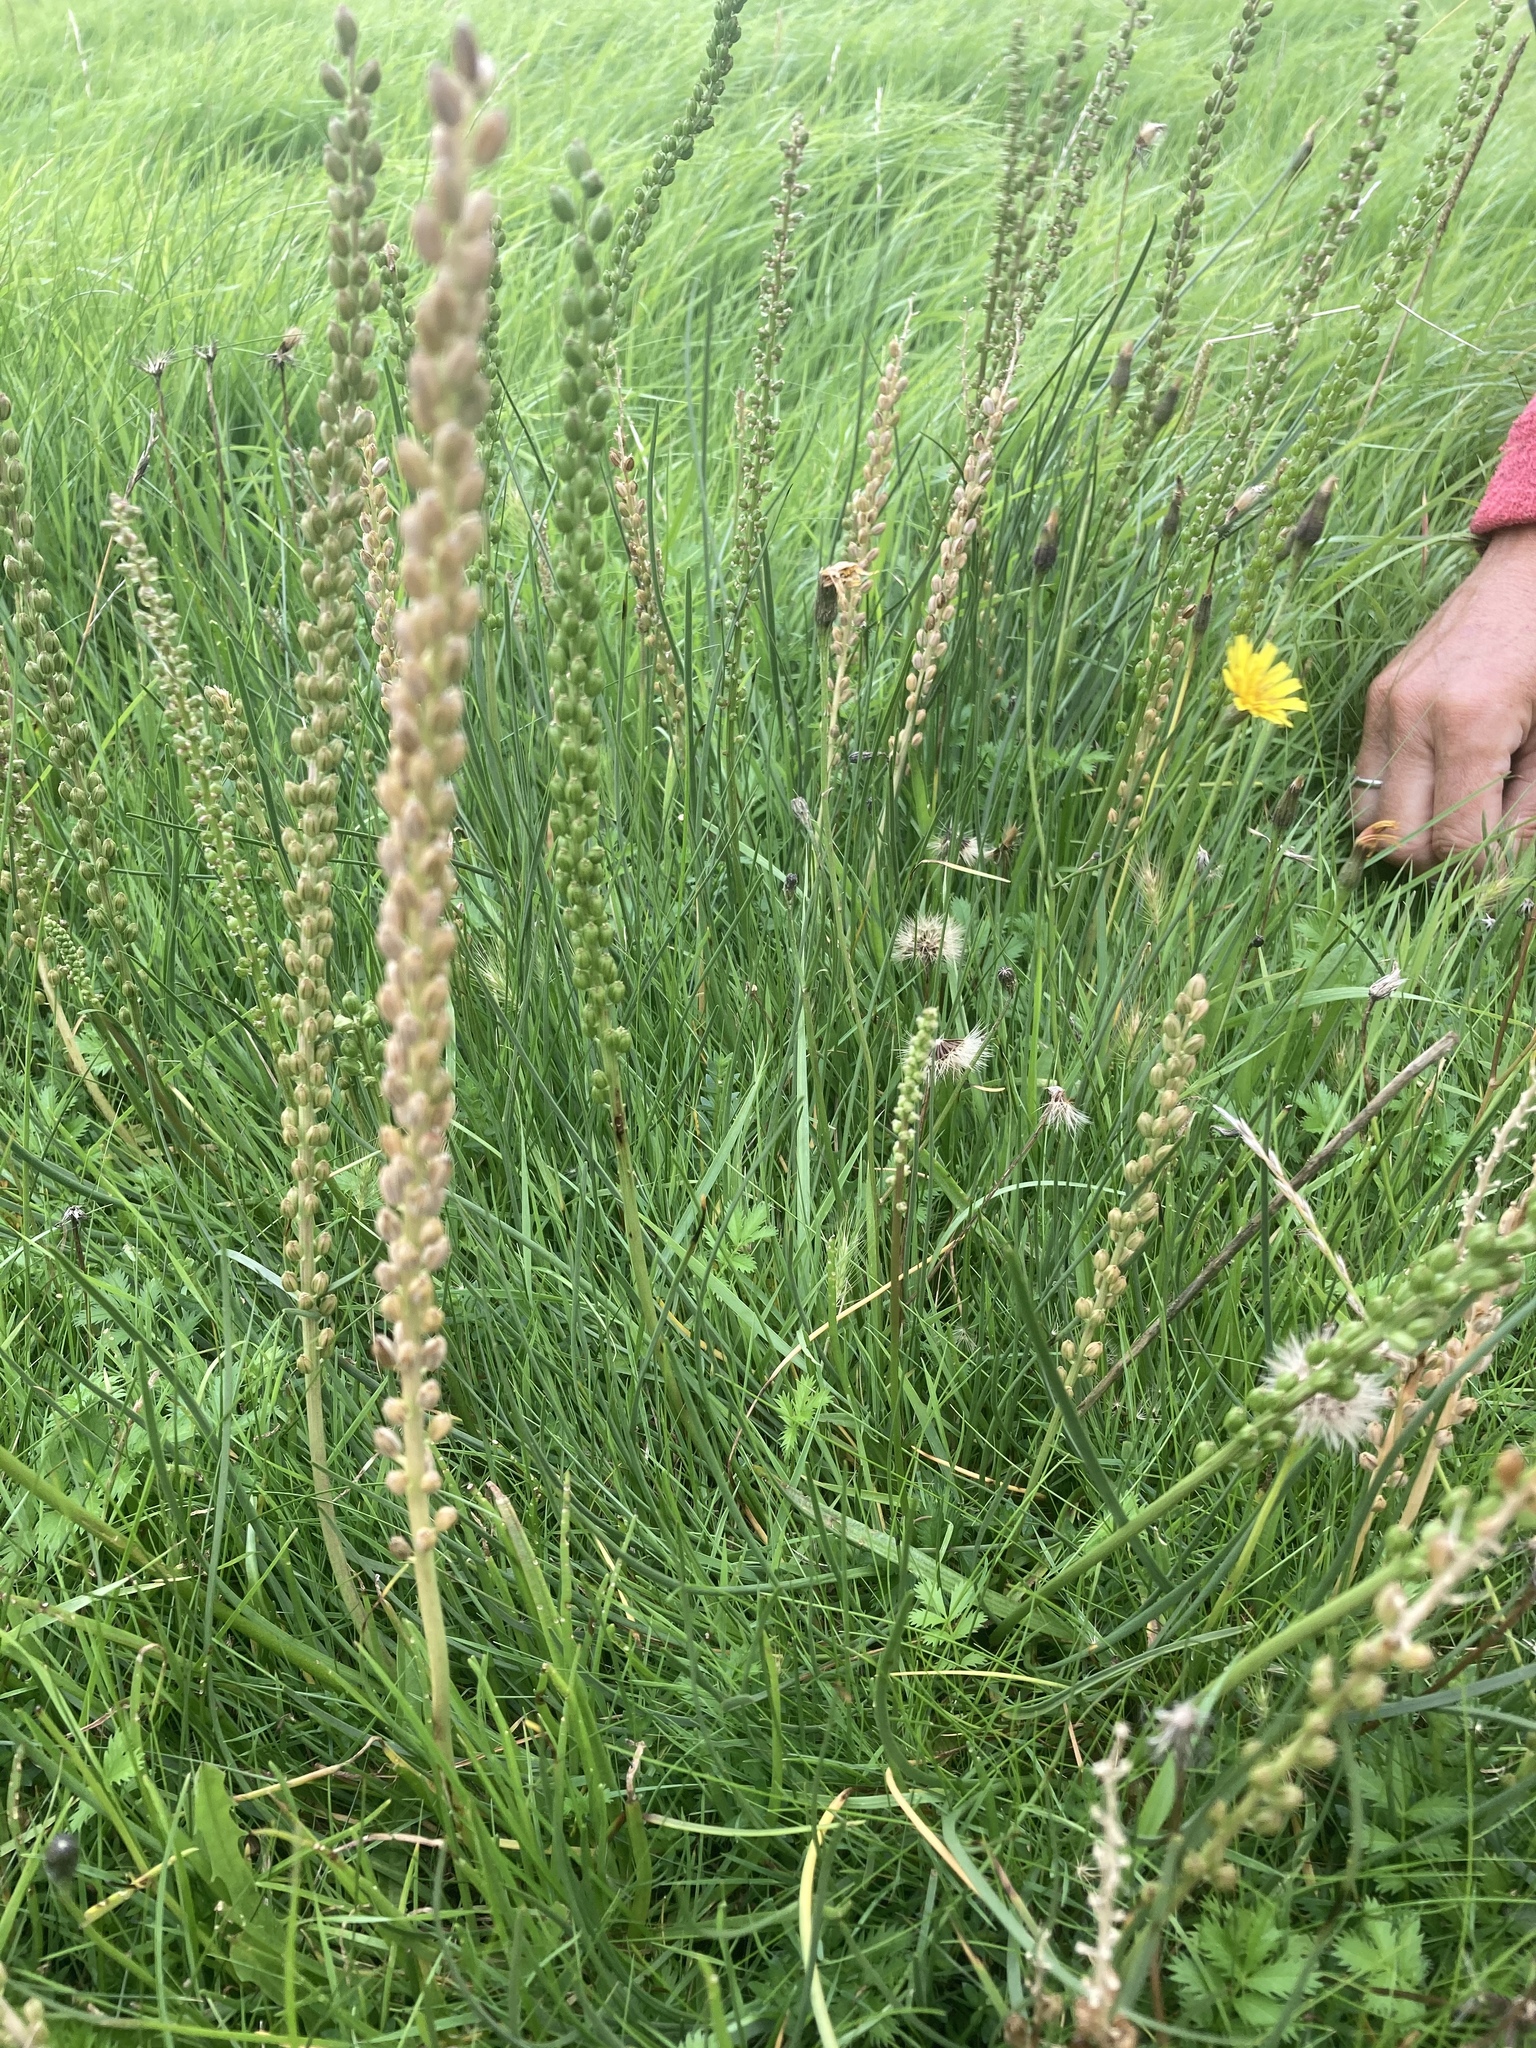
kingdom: Plantae
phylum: Tracheophyta
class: Liliopsida
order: Alismatales
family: Juncaginaceae
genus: Triglochin
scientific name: Triglochin maritima
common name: Sea arrowgrass
